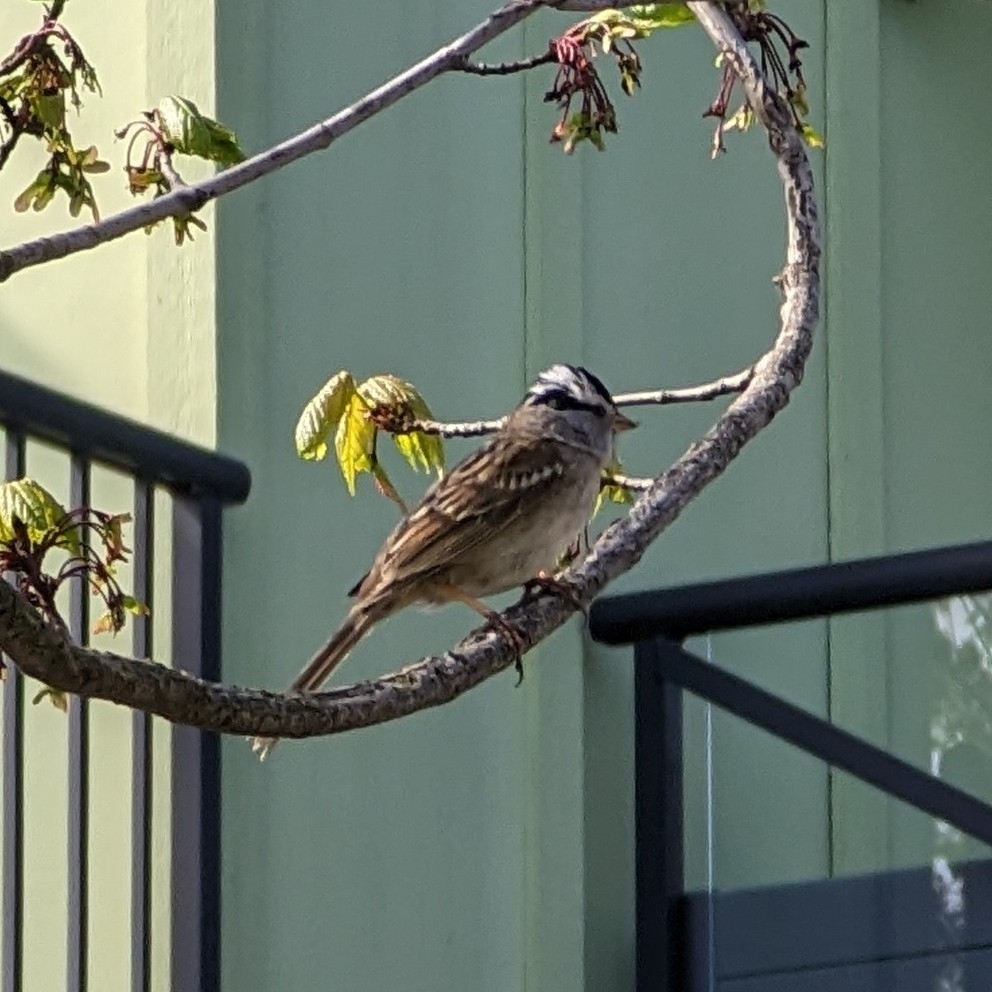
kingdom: Animalia
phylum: Chordata
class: Aves
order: Passeriformes
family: Passerellidae
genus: Zonotrichia
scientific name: Zonotrichia leucophrys
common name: White-crowned sparrow
